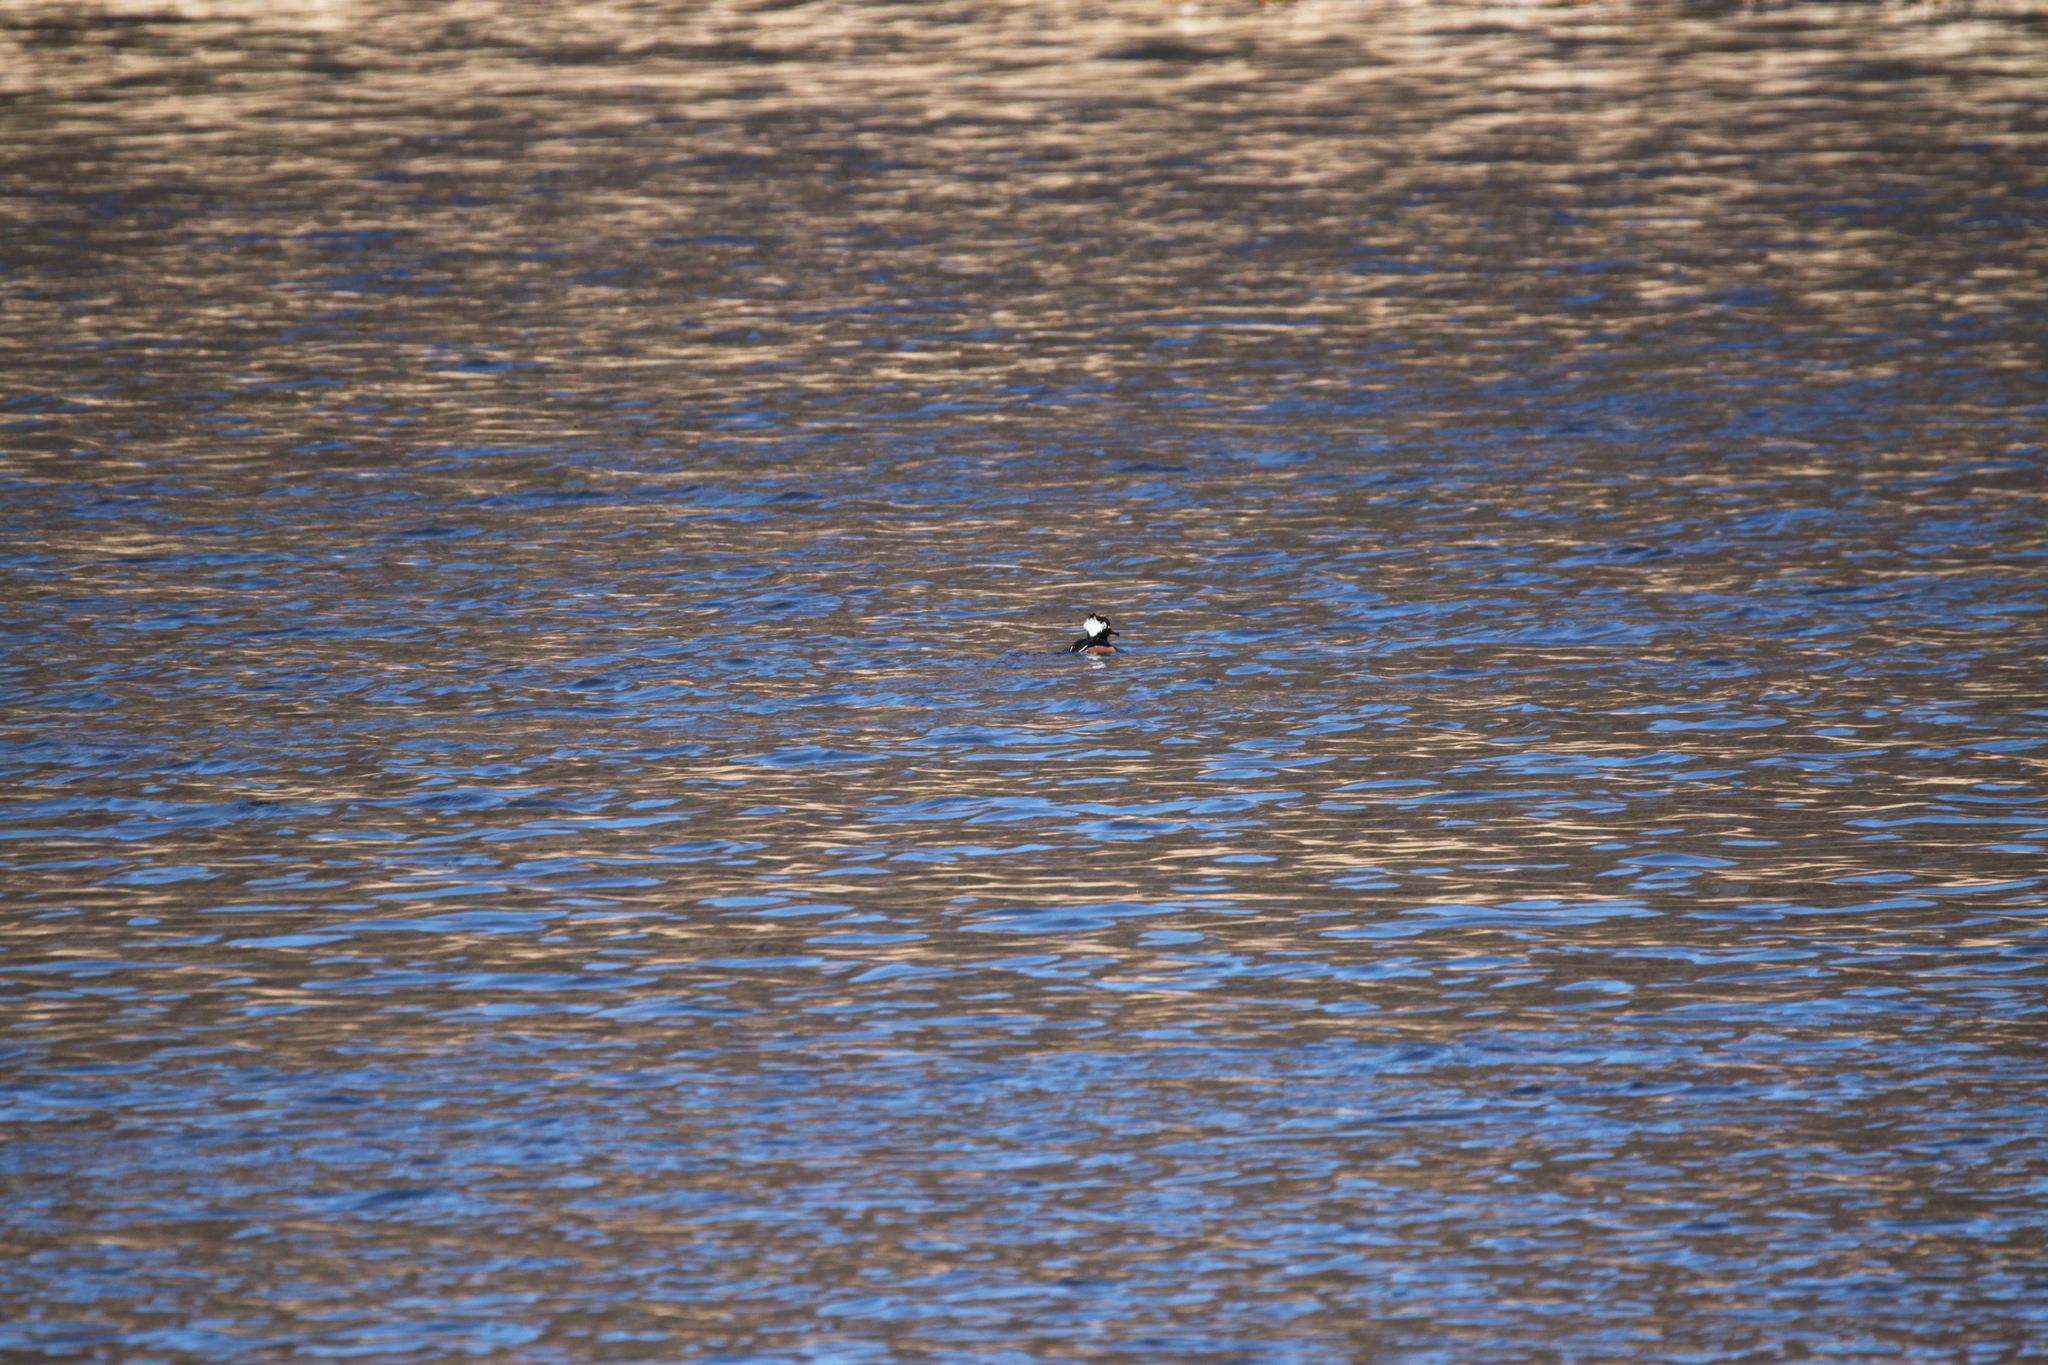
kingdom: Animalia
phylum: Chordata
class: Aves
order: Anseriformes
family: Anatidae
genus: Lophodytes
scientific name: Lophodytes cucullatus
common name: Hooded merganser
